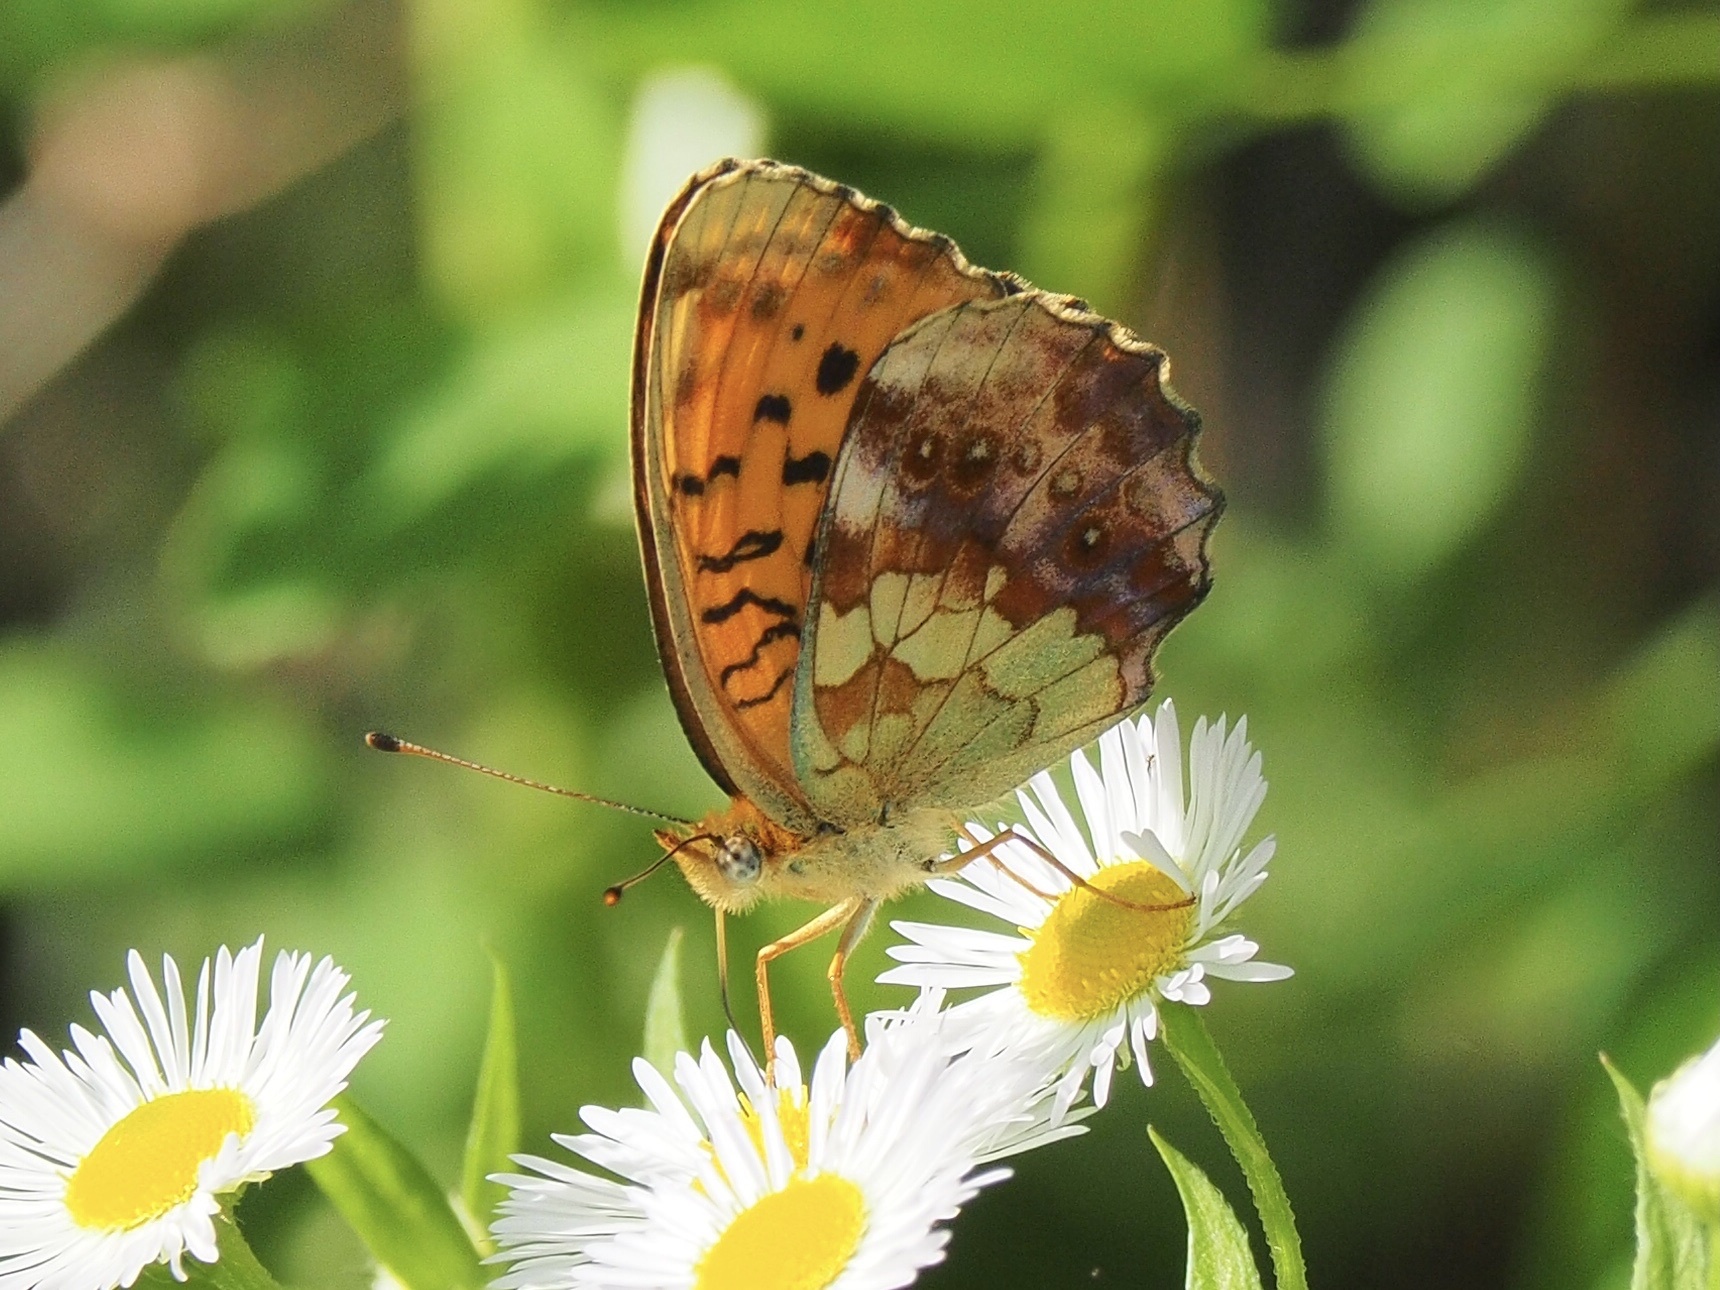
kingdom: Animalia
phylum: Arthropoda
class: Insecta
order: Lepidoptera
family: Nymphalidae
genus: Brenthis
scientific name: Brenthis daphne
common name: Marbled fritillary
